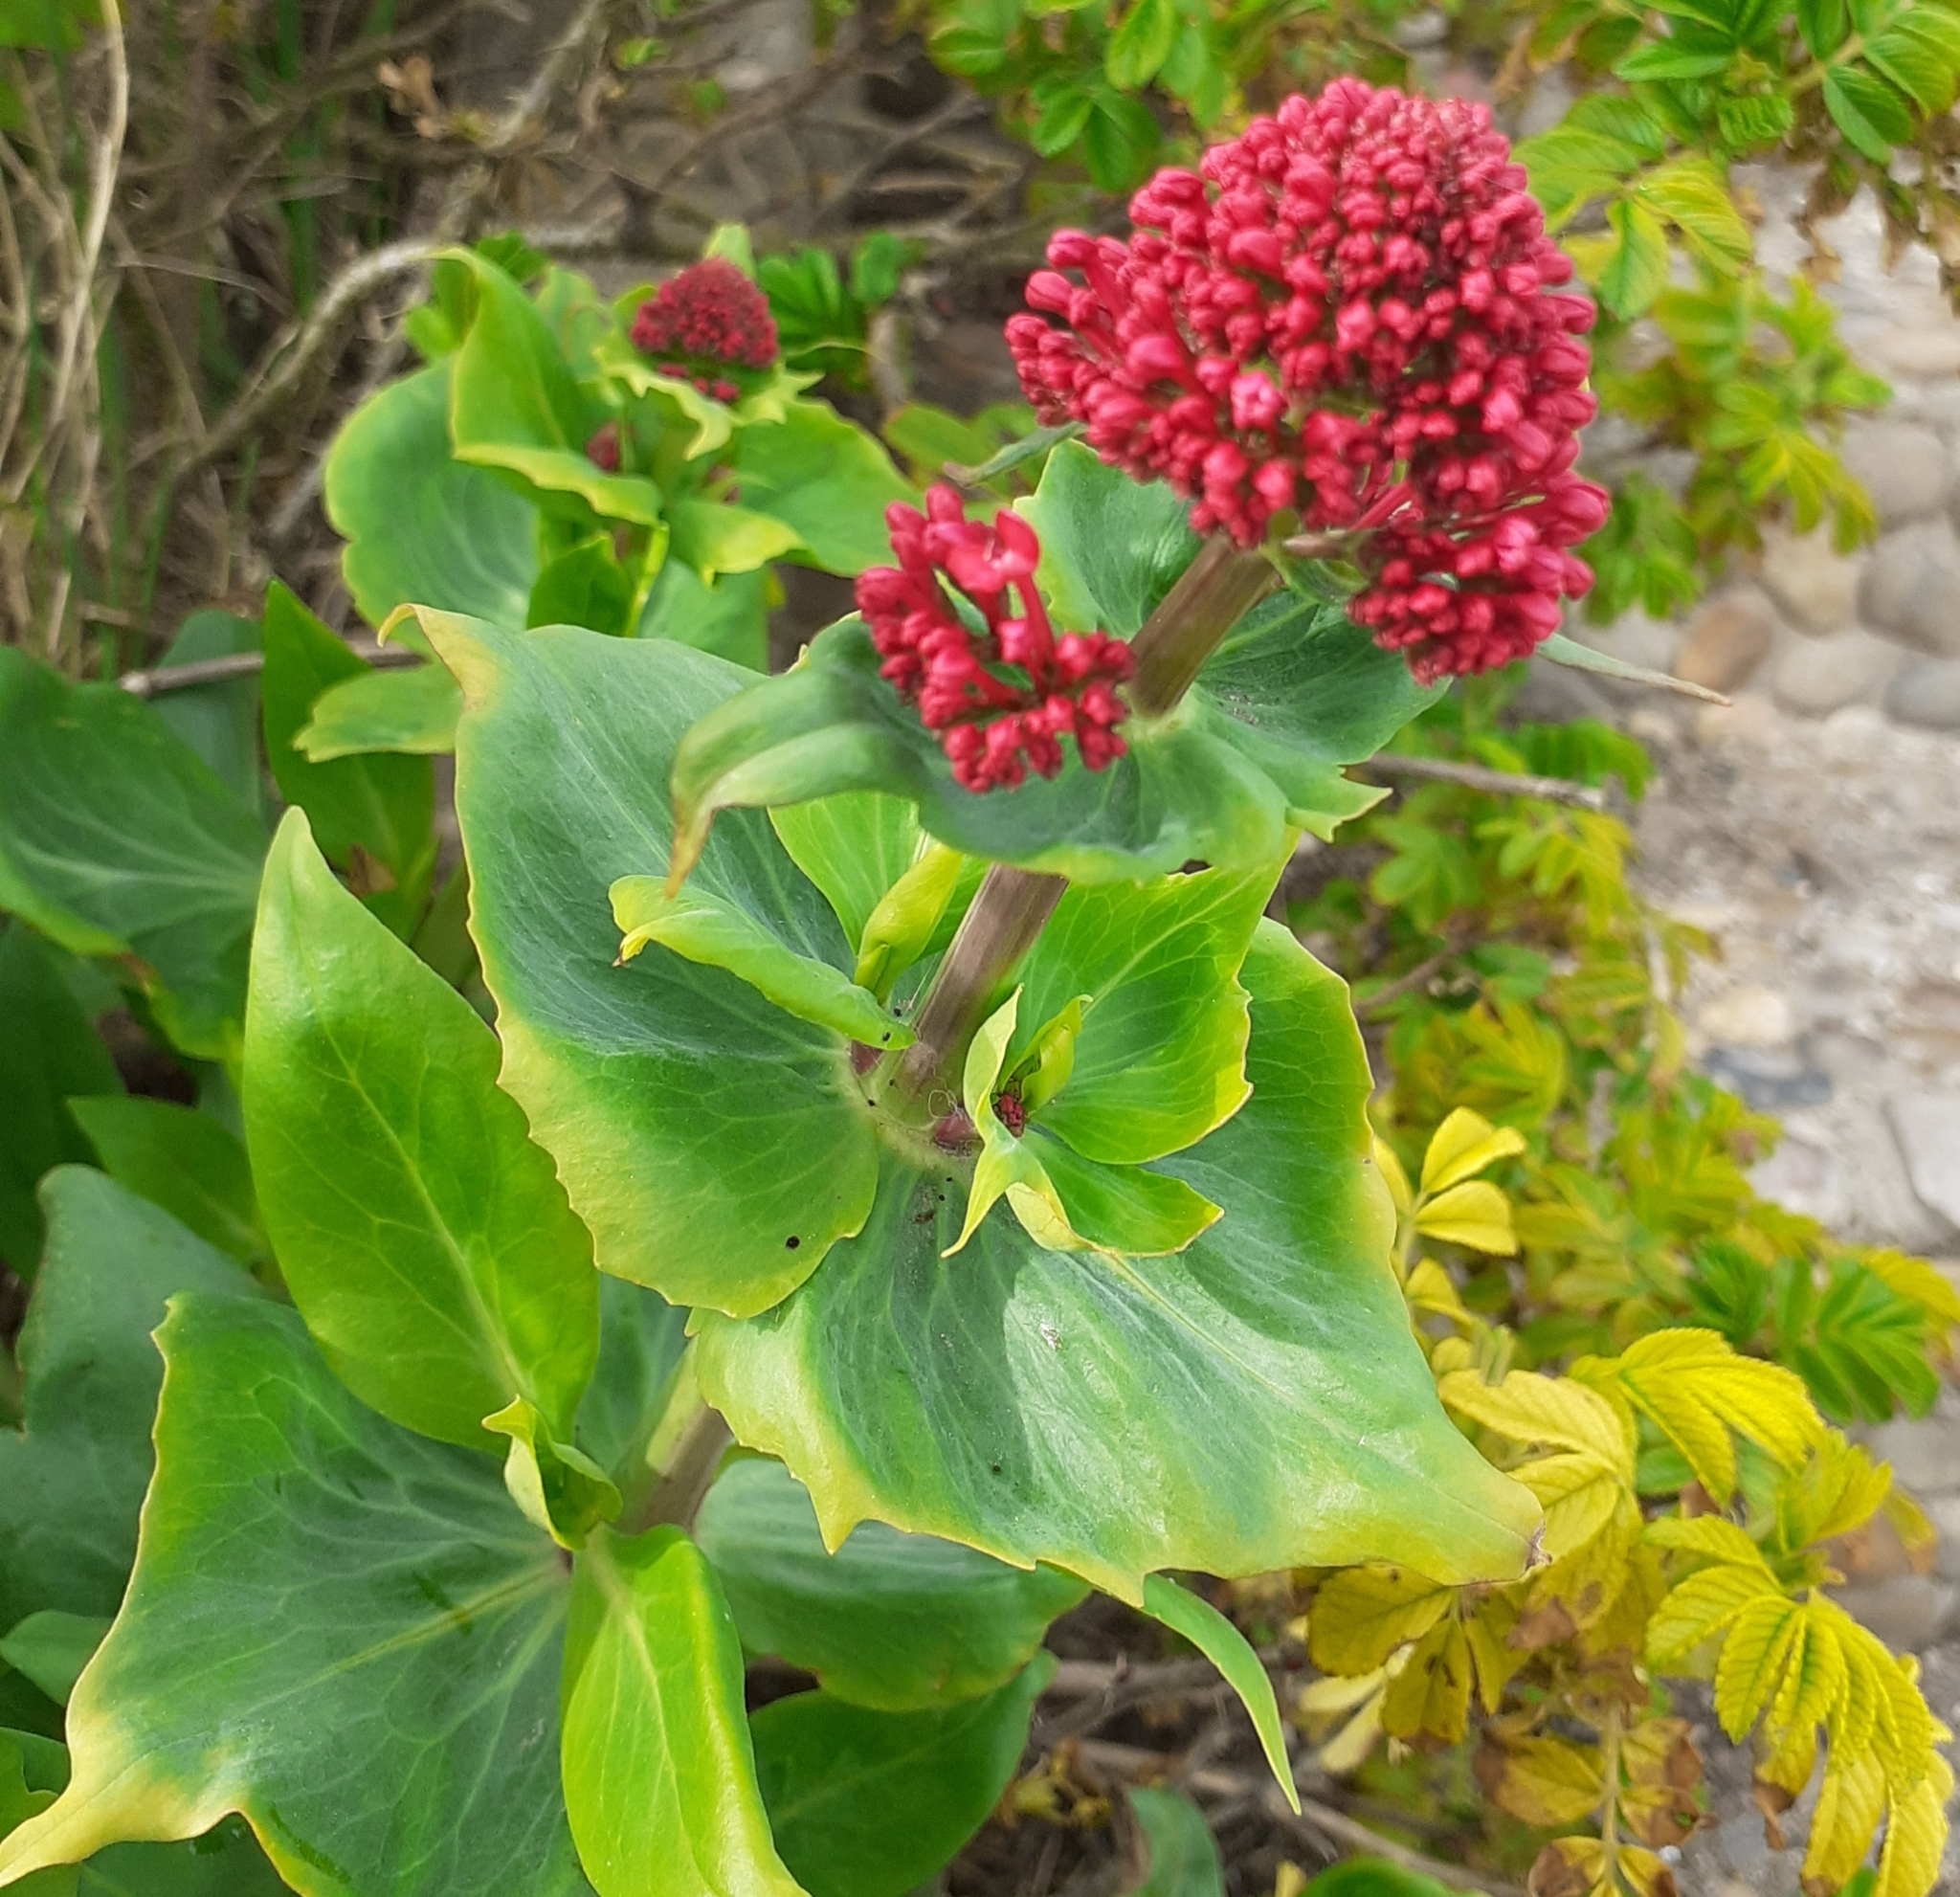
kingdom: Plantae
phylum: Tracheophyta
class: Magnoliopsida
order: Dipsacales
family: Caprifoliaceae
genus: Centranthus
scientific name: Centranthus ruber
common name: Red valerian
